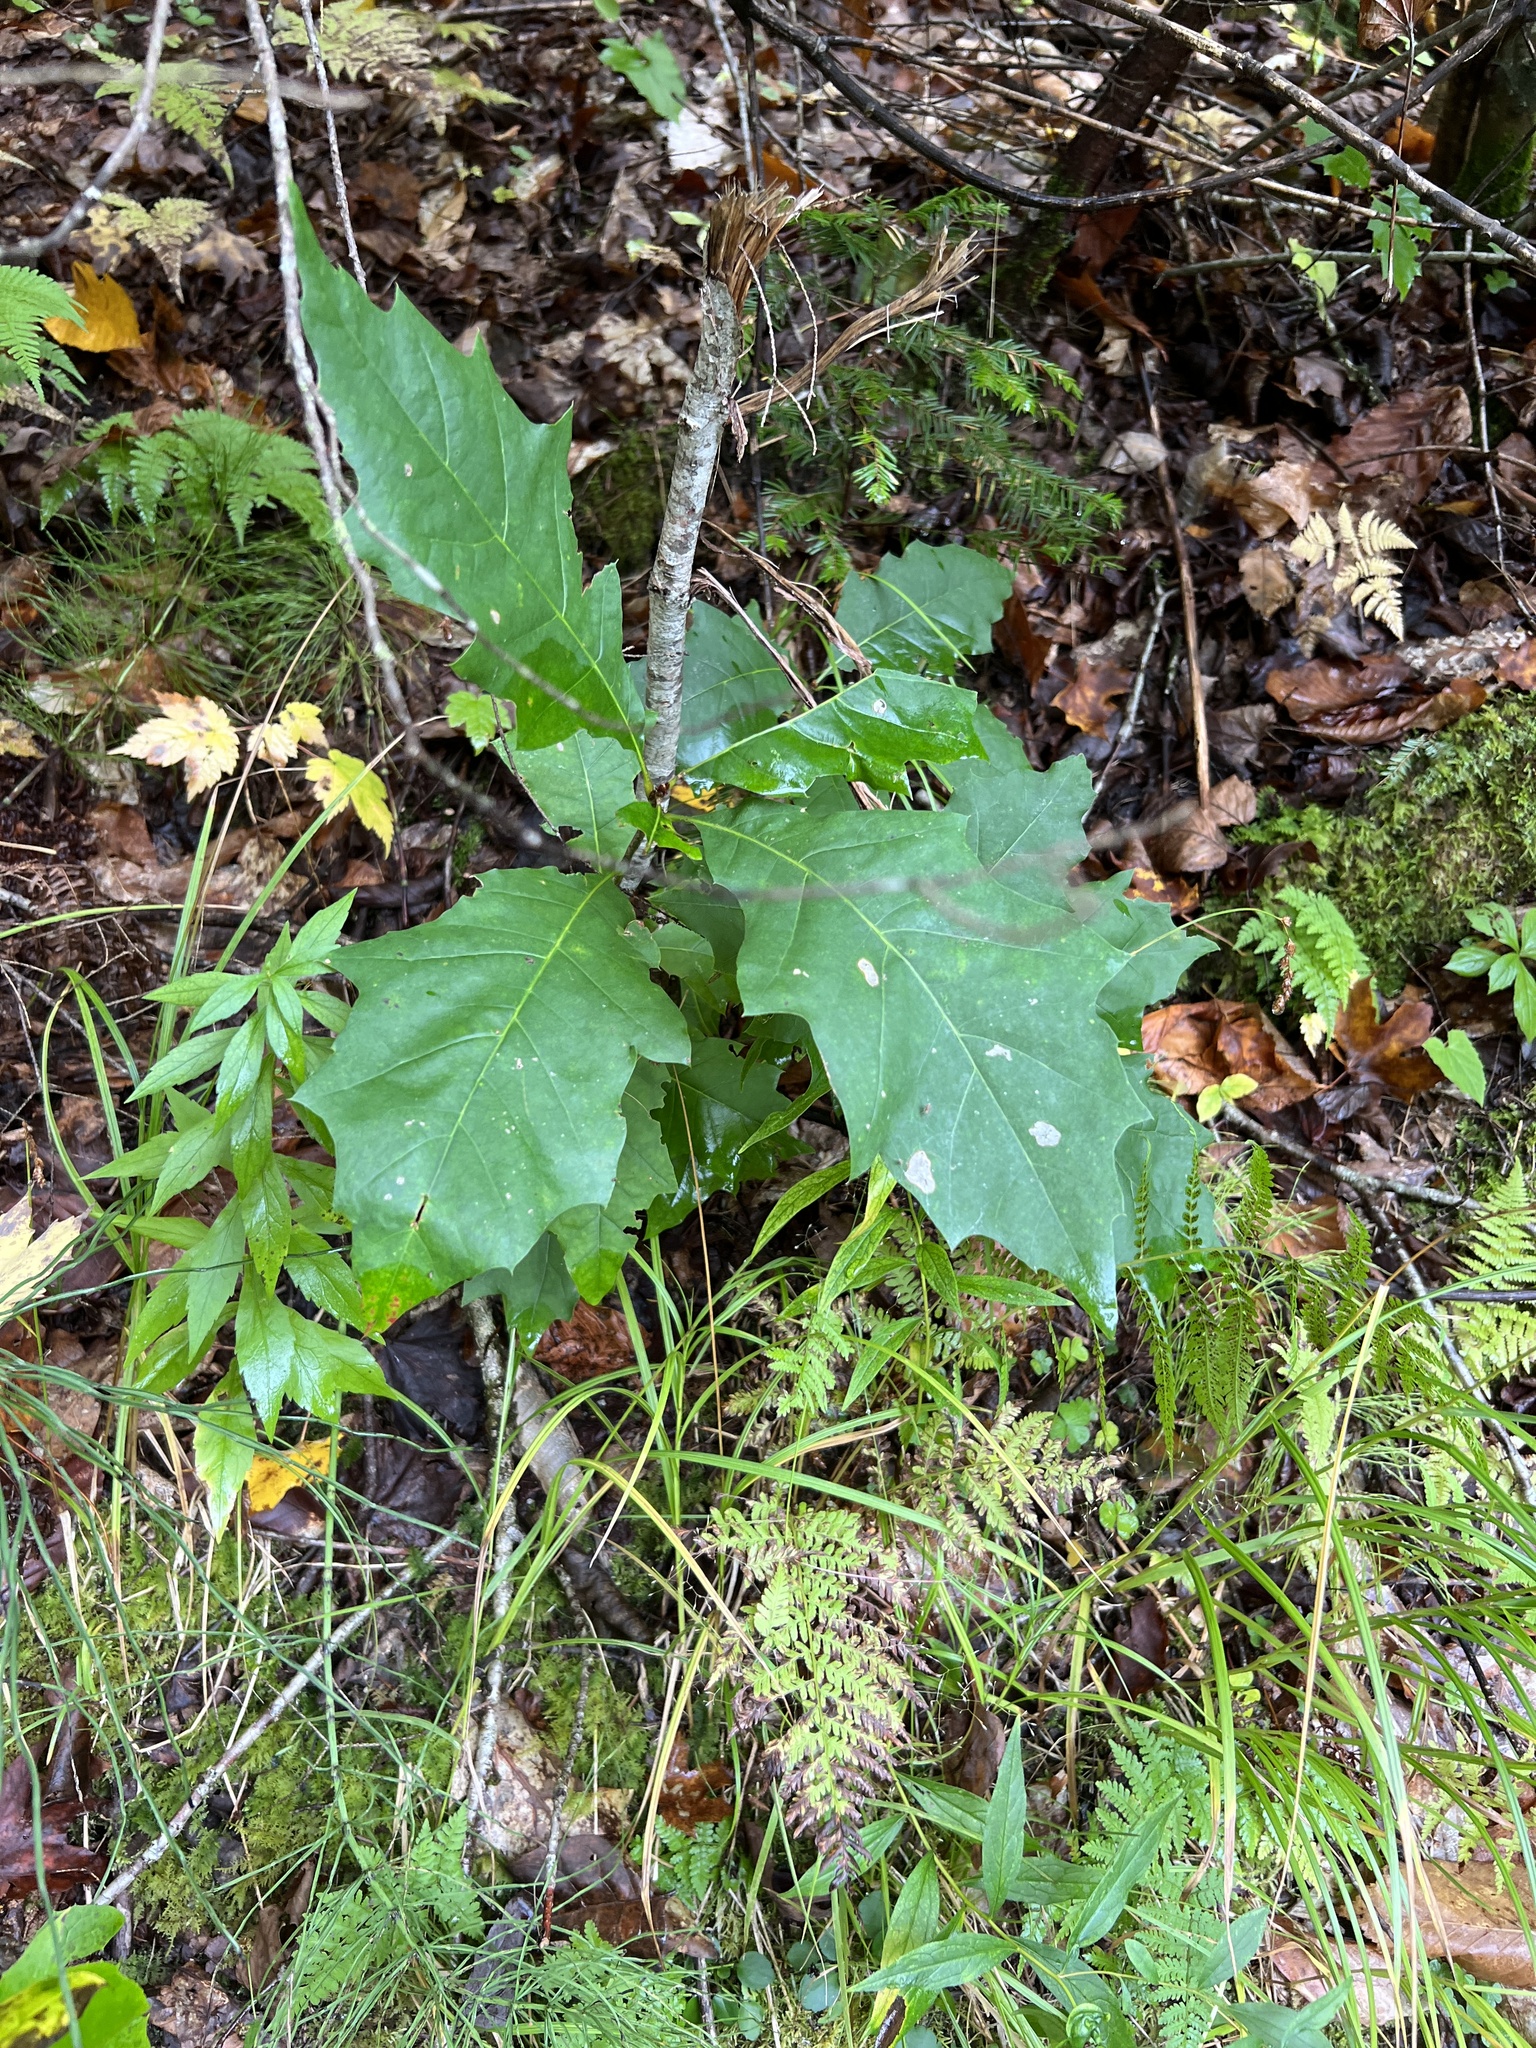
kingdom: Plantae
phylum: Tracheophyta
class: Magnoliopsida
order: Fagales
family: Fagaceae
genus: Quercus
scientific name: Quercus rubra
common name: Red oak
